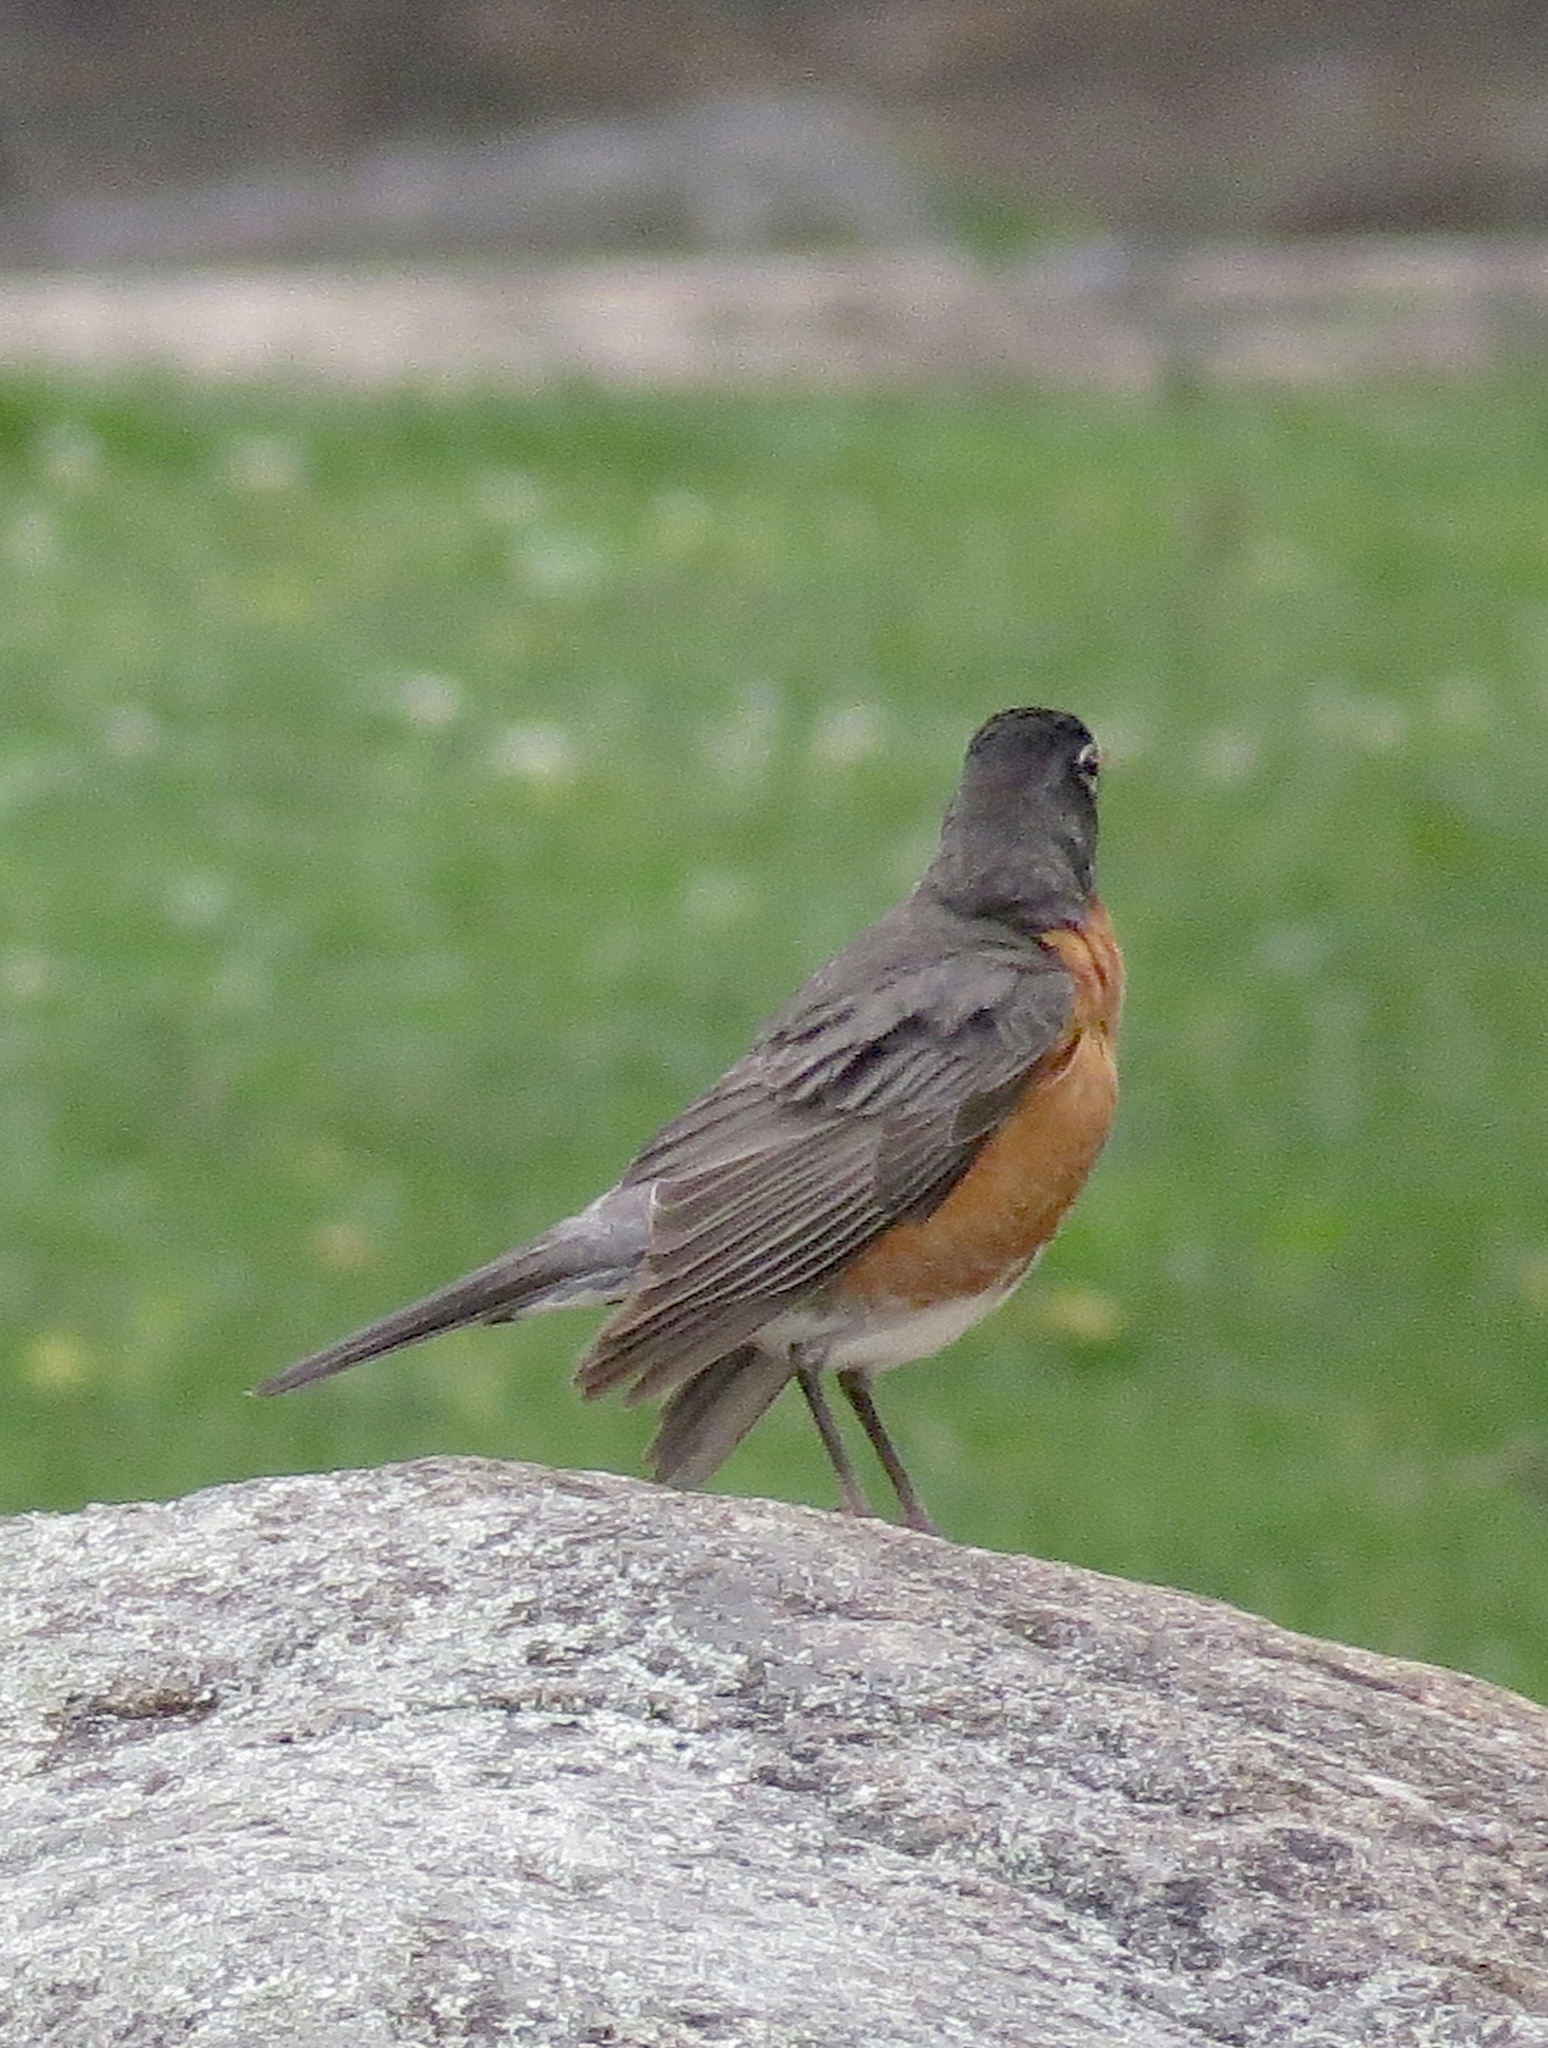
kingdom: Animalia
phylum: Chordata
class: Aves
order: Passeriformes
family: Turdidae
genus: Turdus
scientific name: Turdus migratorius
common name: American robin
